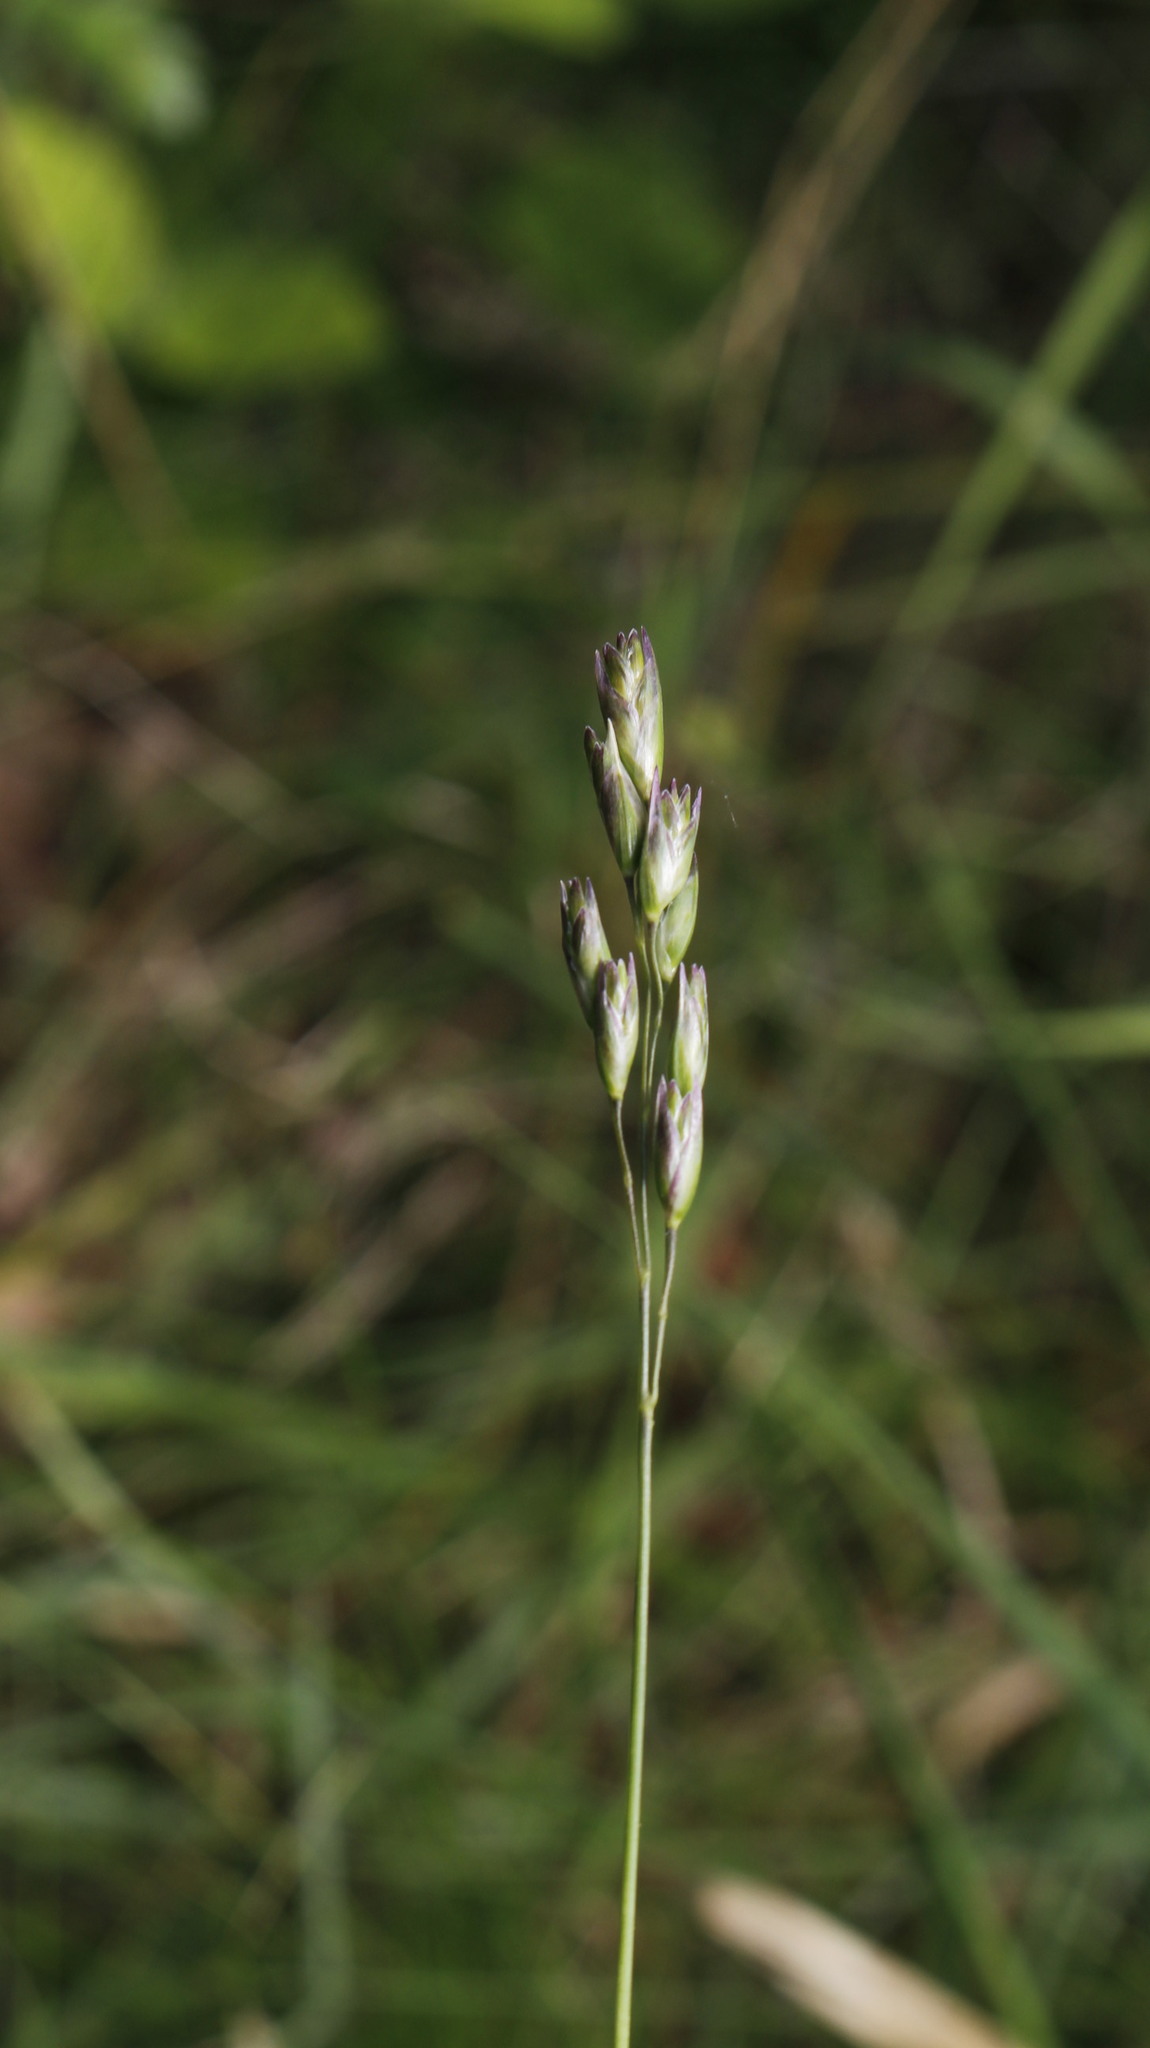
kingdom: Plantae
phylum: Tracheophyta
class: Liliopsida
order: Poales
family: Poaceae
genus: Danthonia
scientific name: Danthonia decumbens
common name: Common heathgrass
